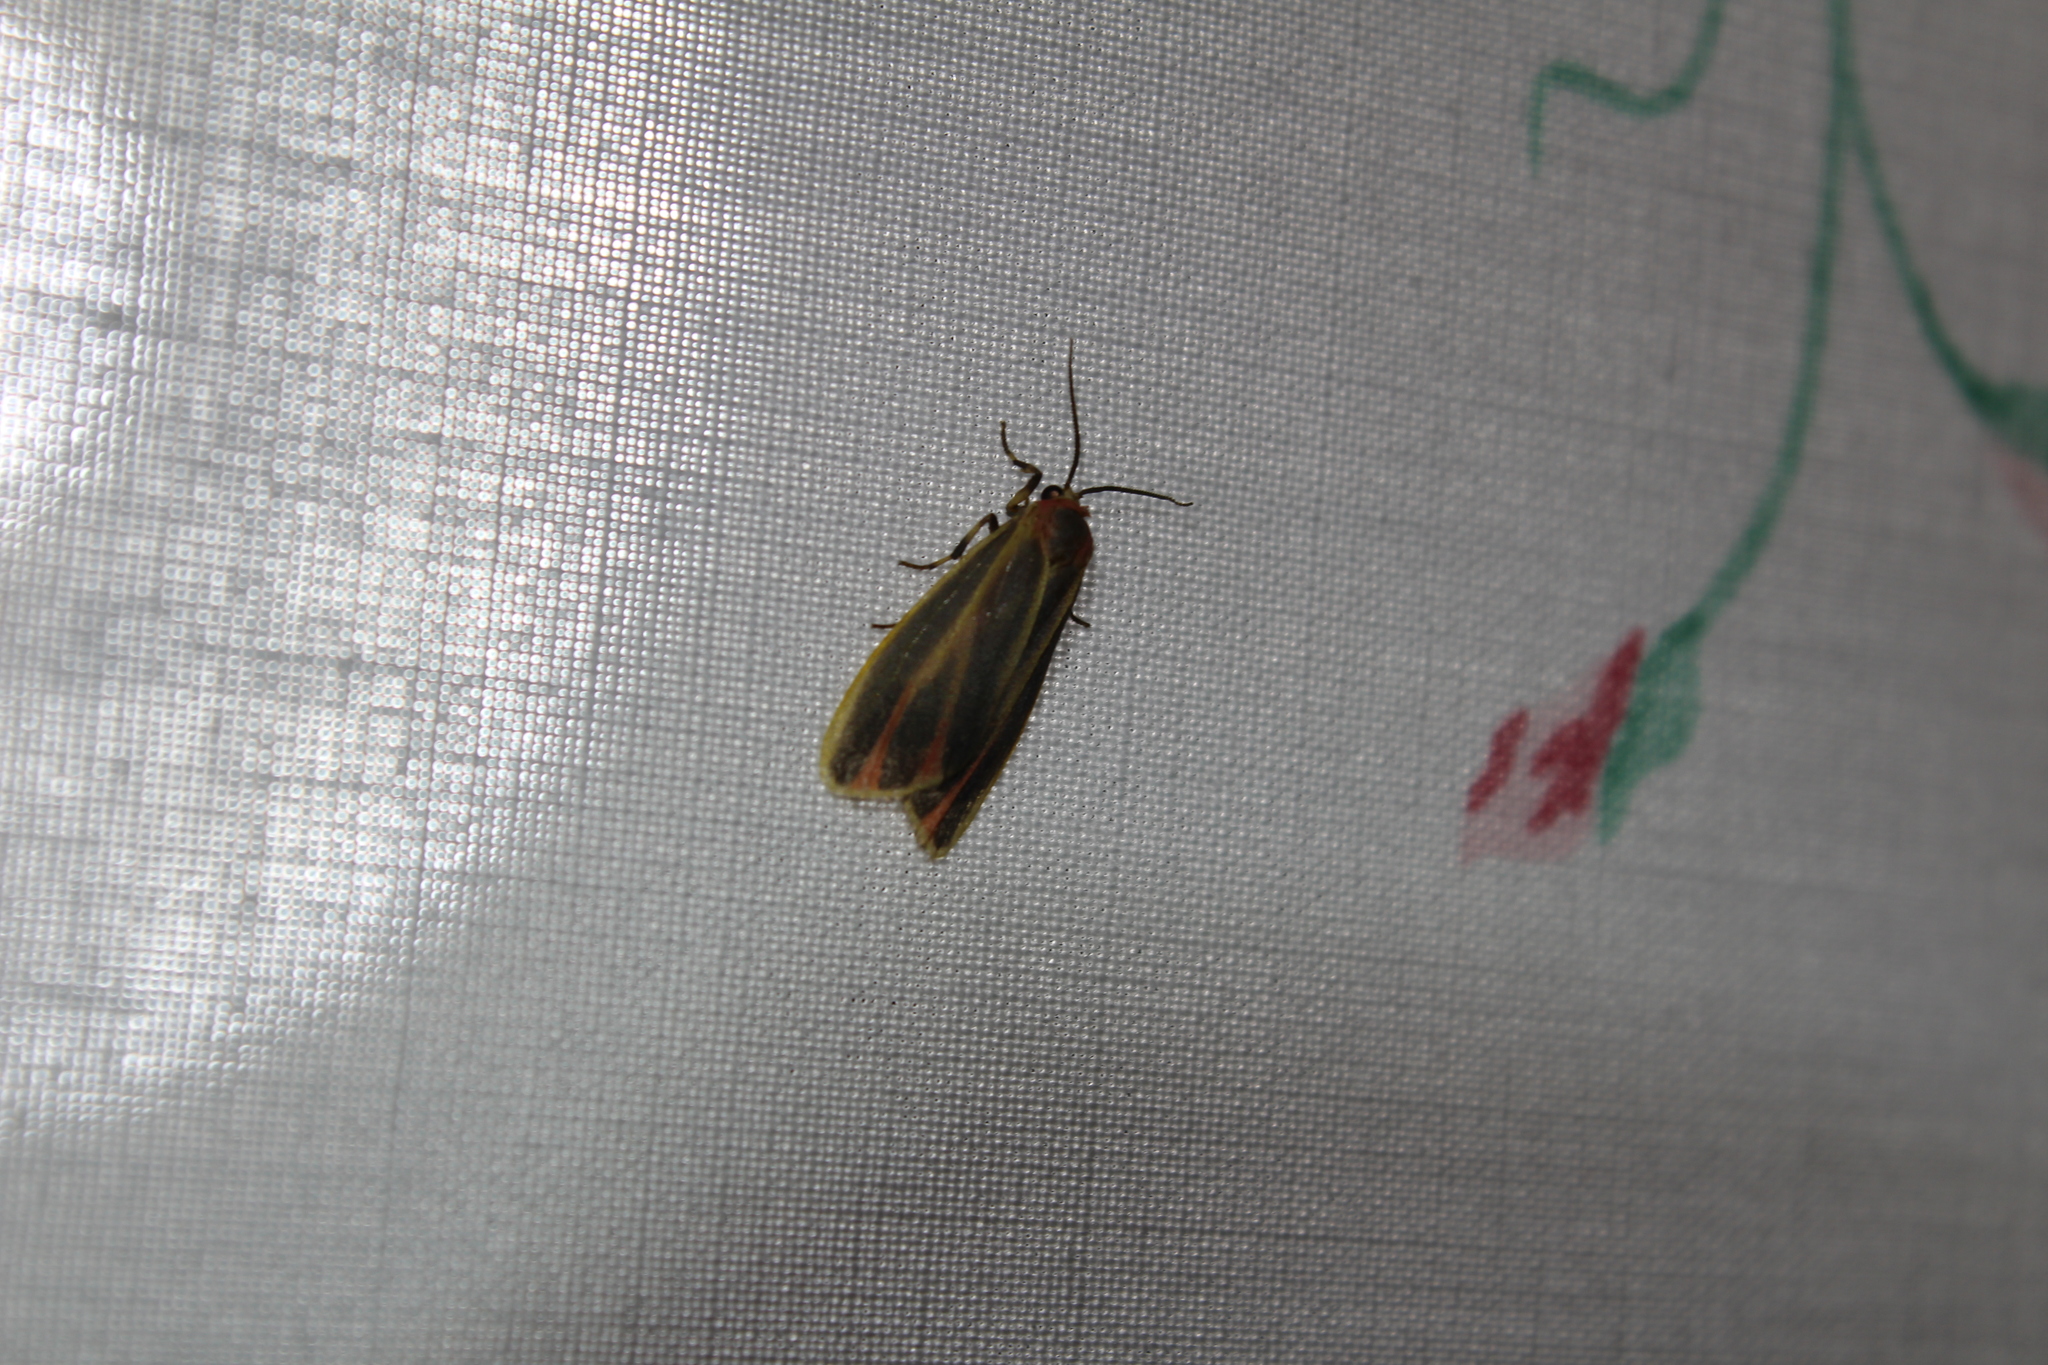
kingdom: Animalia
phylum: Arthropoda
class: Insecta
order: Lepidoptera
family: Erebidae
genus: Hypoprepia
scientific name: Hypoprepia fucosa
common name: Painted lichen moth
